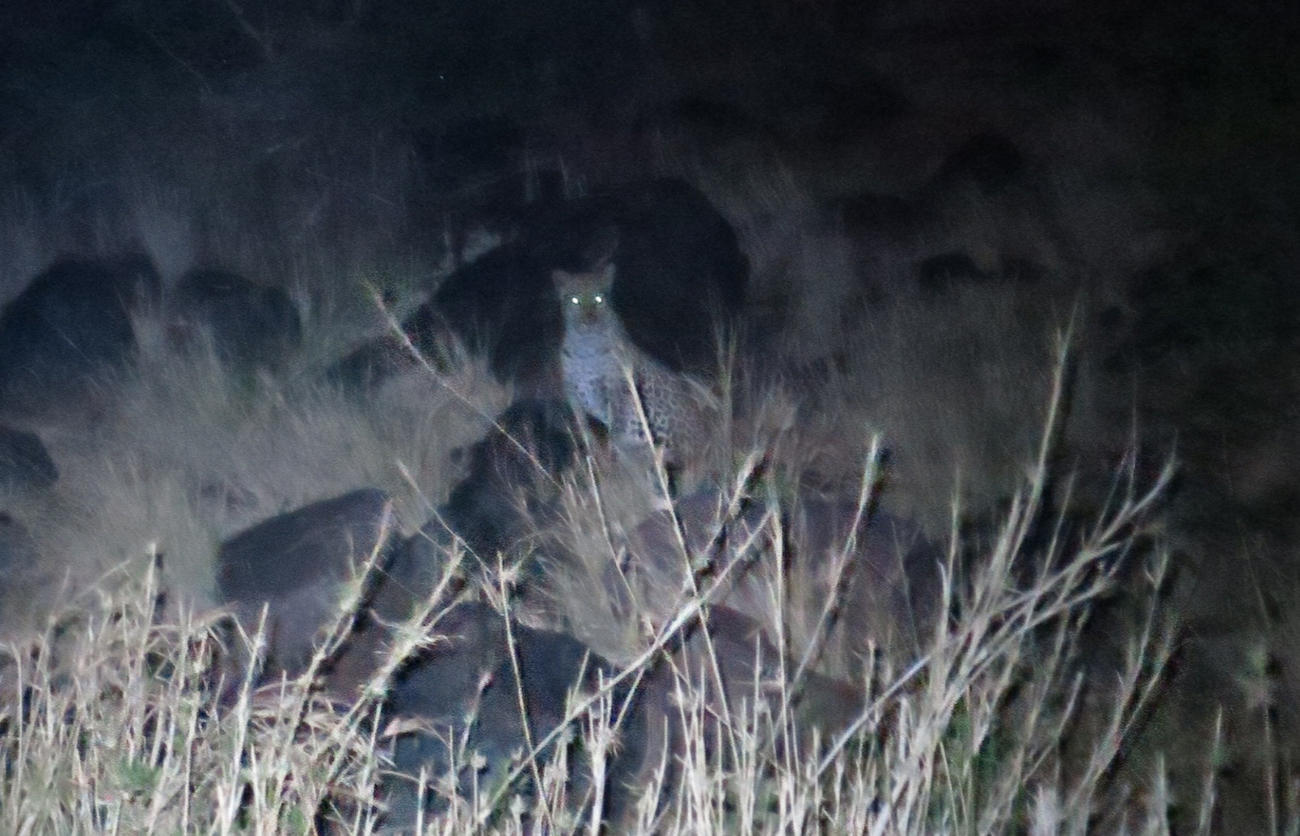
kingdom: Animalia
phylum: Chordata
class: Mammalia
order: Carnivora
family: Felidae
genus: Panthera
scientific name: Panthera pardus
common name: Leopard
